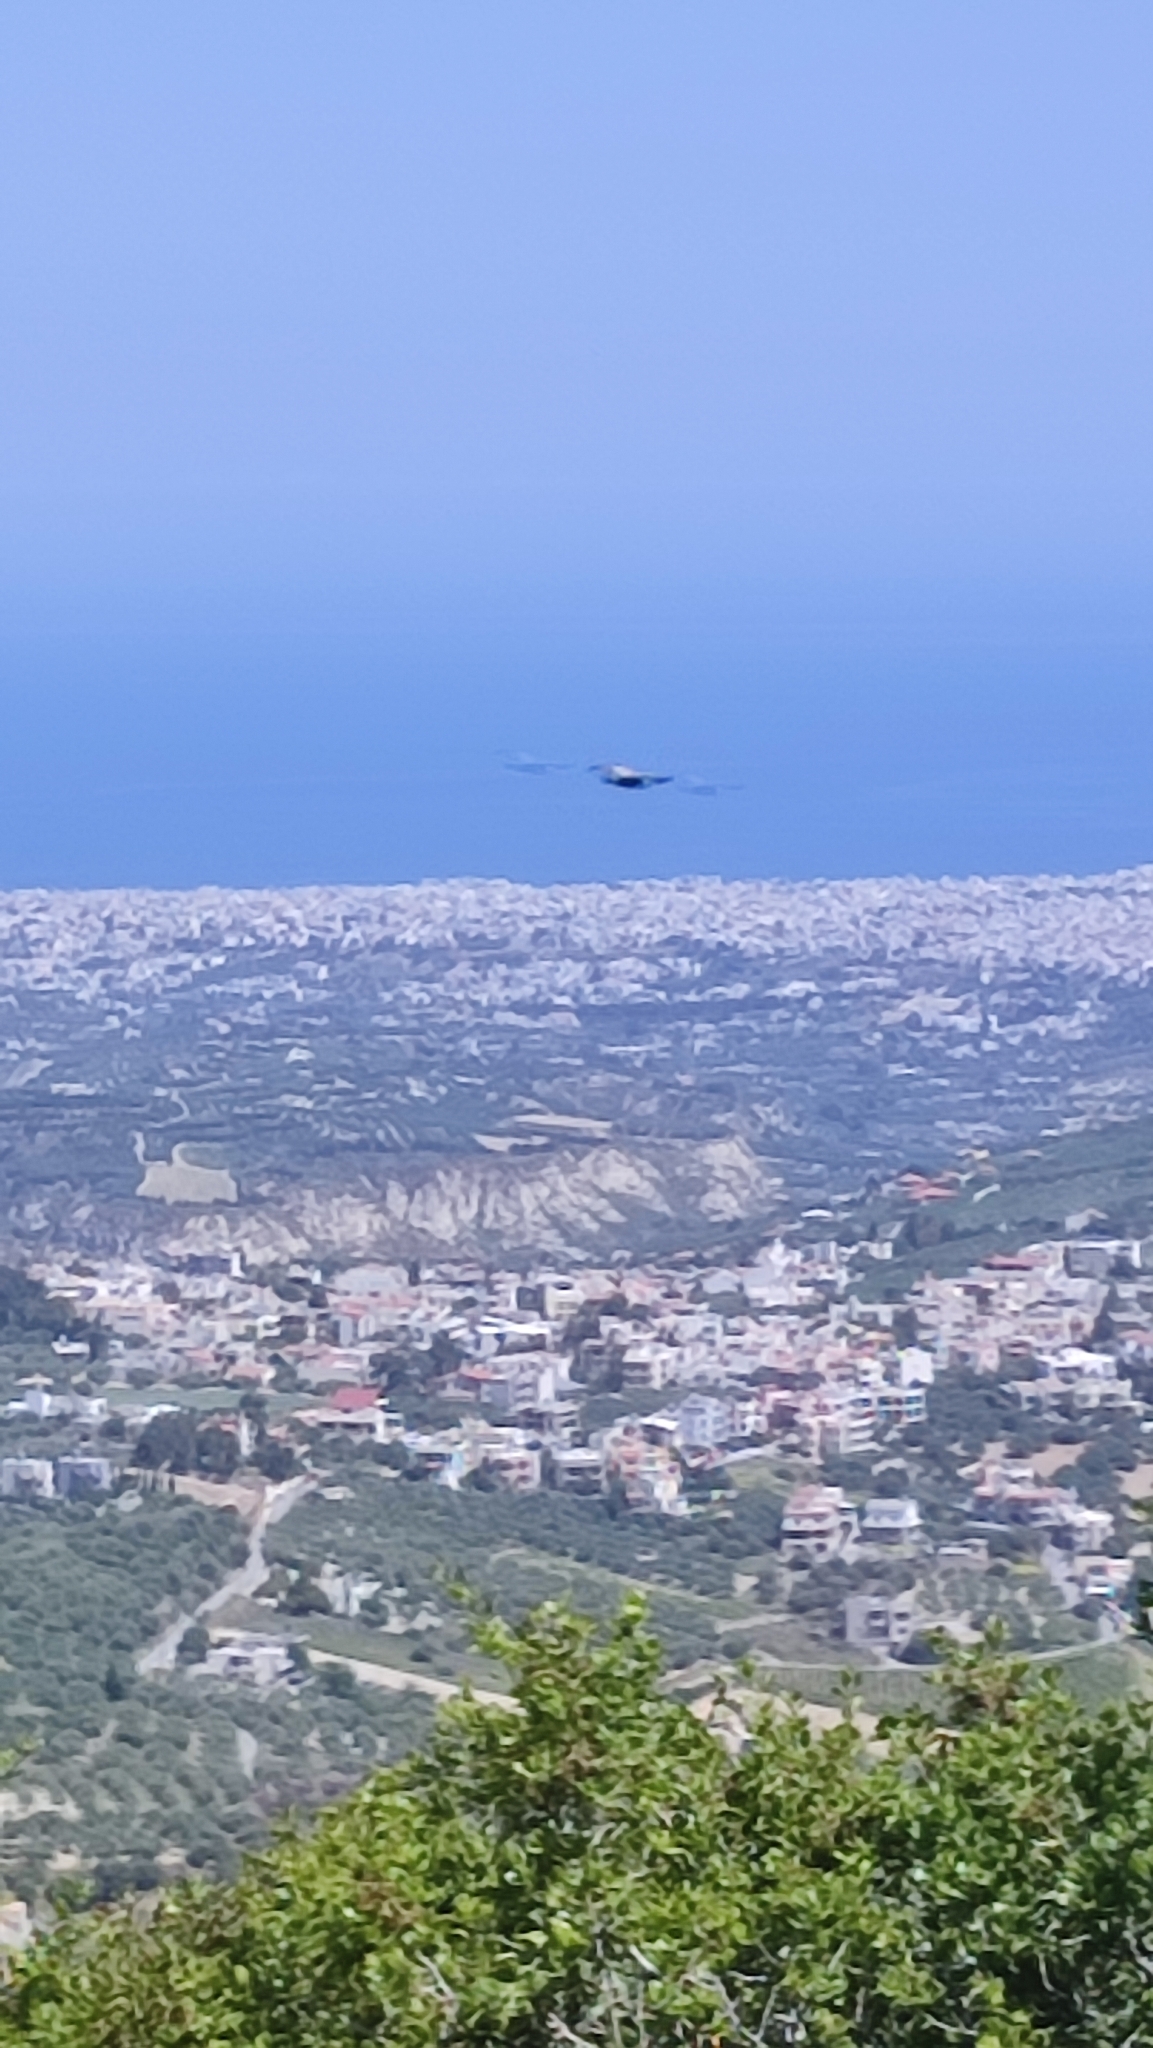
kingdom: Animalia
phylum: Chordata
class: Aves
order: Accipitriformes
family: Accipitridae
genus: Gyps
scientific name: Gyps fulvus
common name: Griffon vulture
